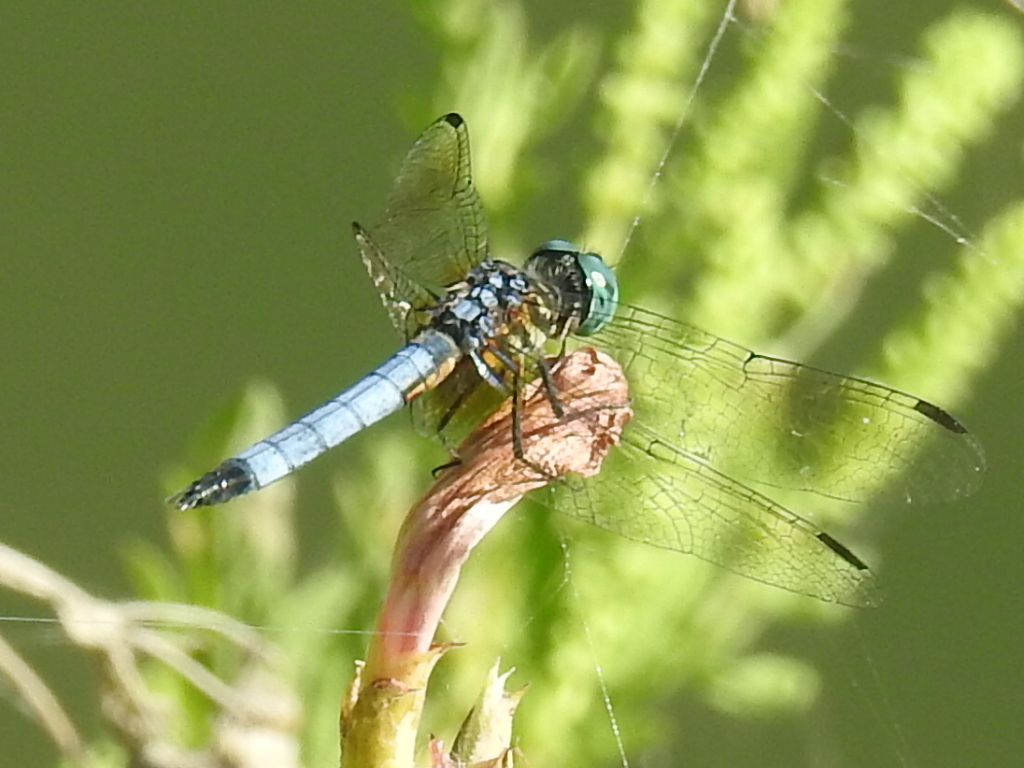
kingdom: Animalia
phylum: Arthropoda
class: Insecta
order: Odonata
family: Libellulidae
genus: Pachydiplax
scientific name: Pachydiplax longipennis
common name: Blue dasher
